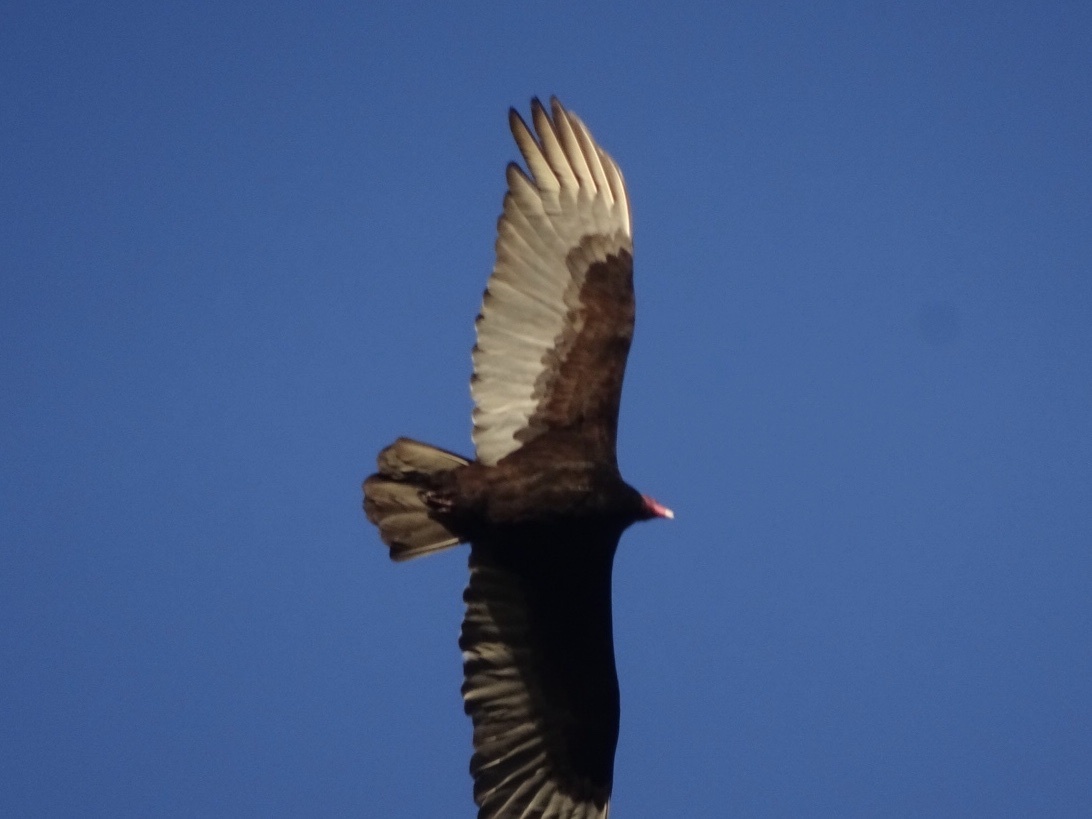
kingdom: Animalia
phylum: Chordata
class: Aves
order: Accipitriformes
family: Cathartidae
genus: Cathartes
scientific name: Cathartes aura
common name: Turkey vulture
